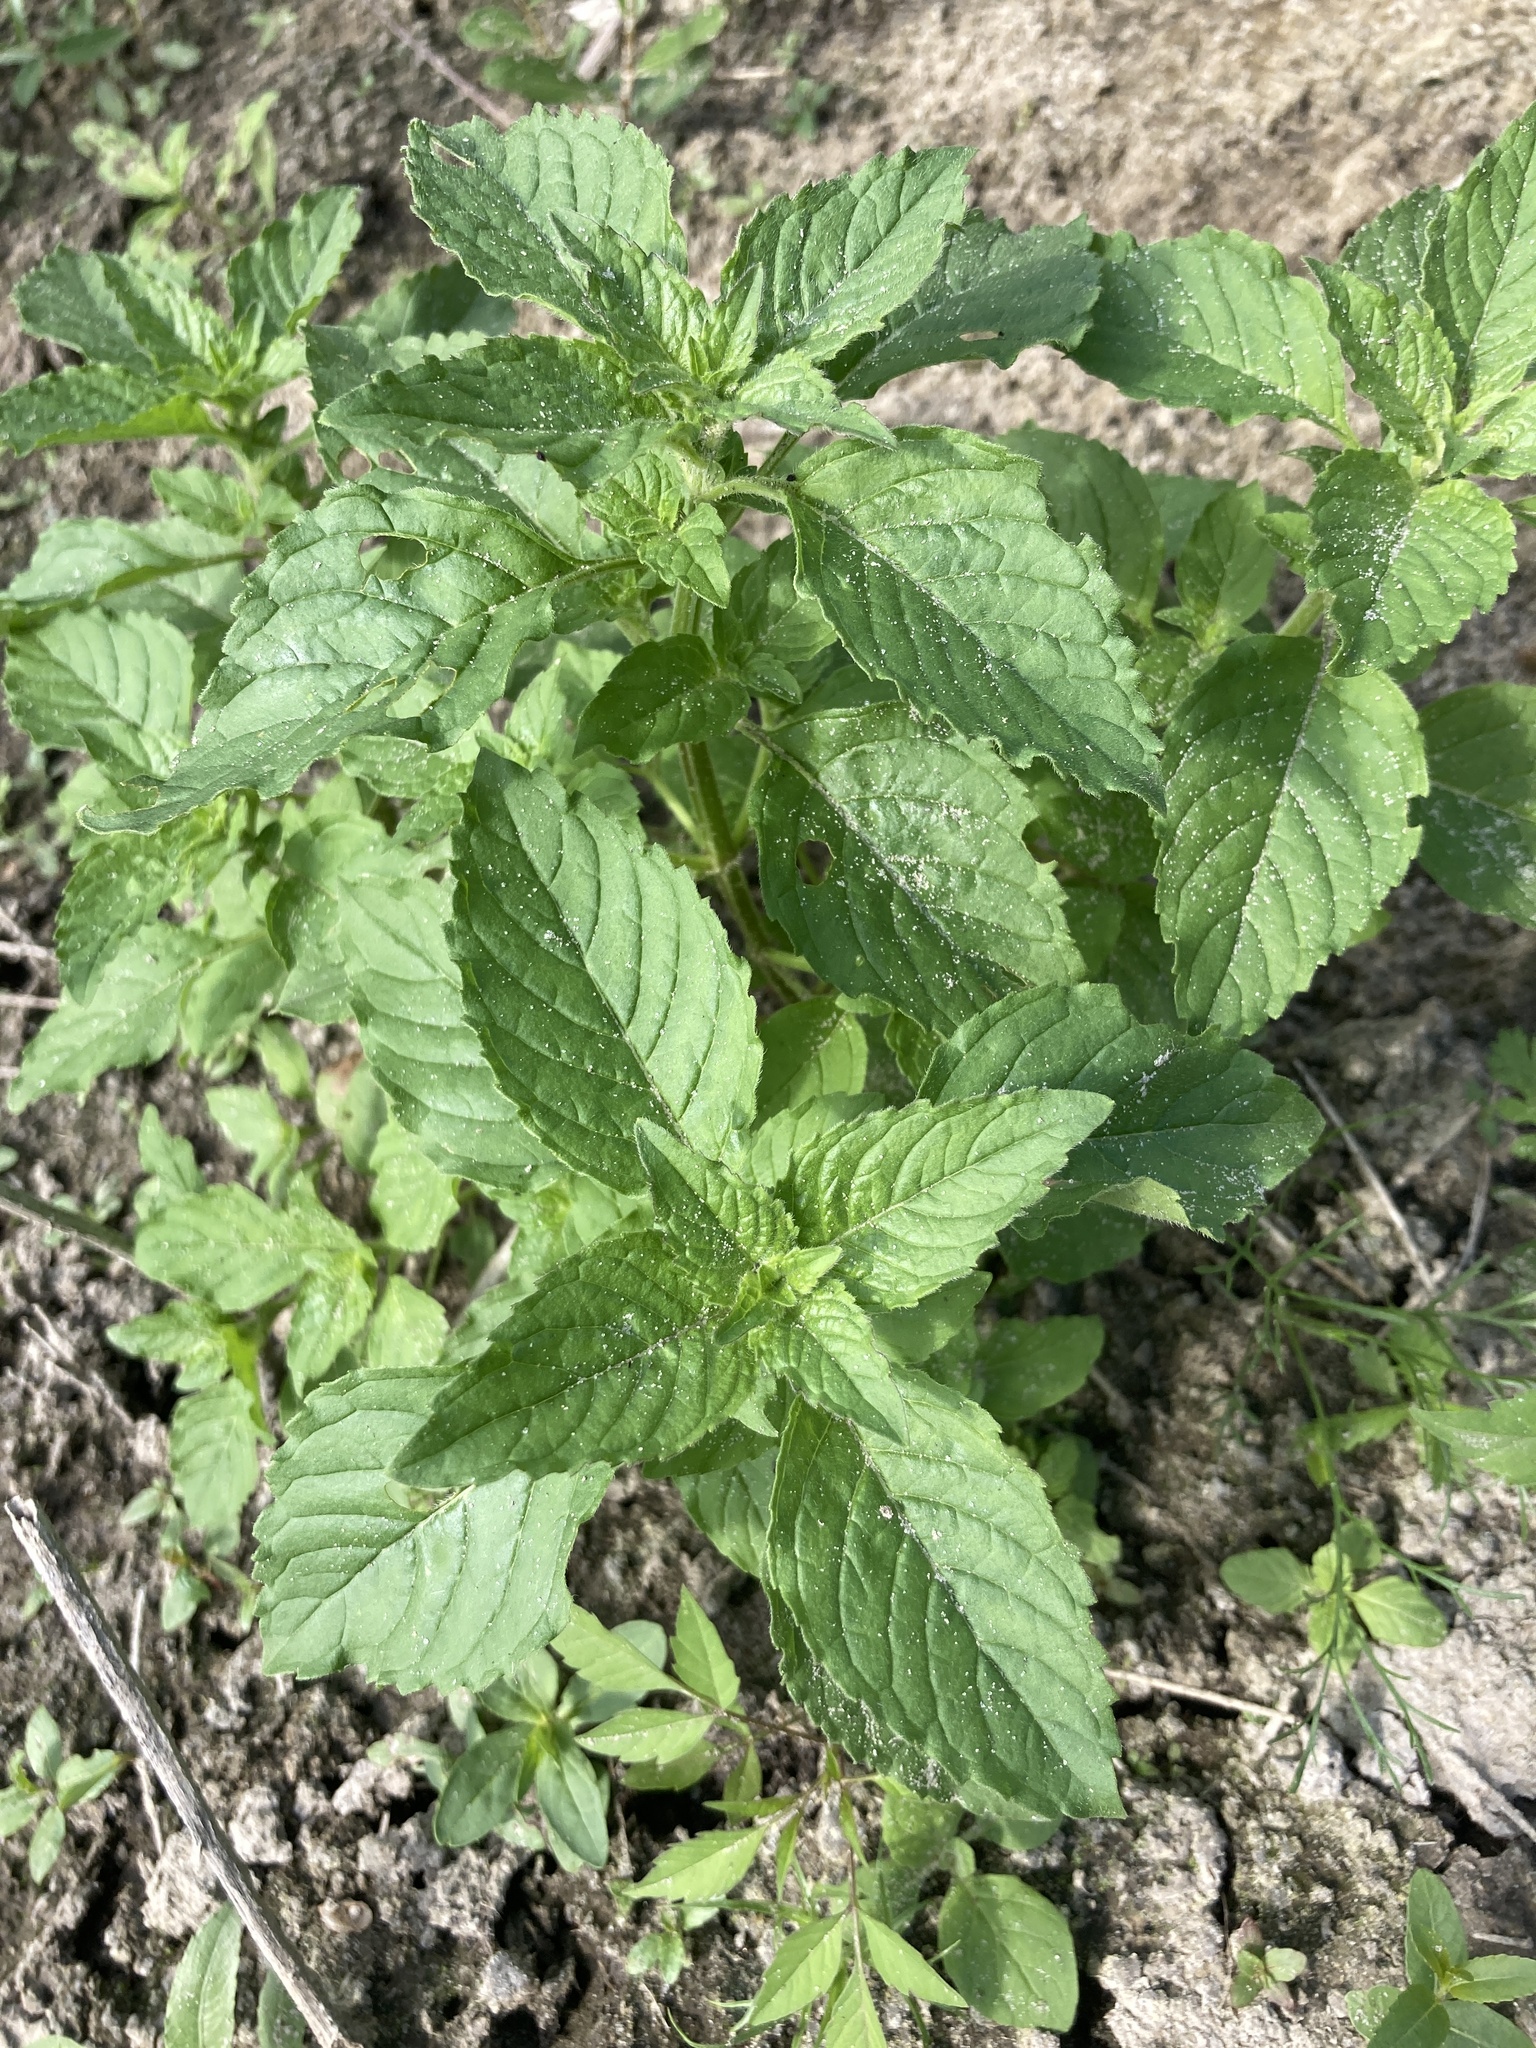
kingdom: Plantae
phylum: Tracheophyta
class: Magnoliopsida
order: Lamiales
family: Lamiaceae
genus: Mentha
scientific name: Mentha arvensis
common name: Corn mint
